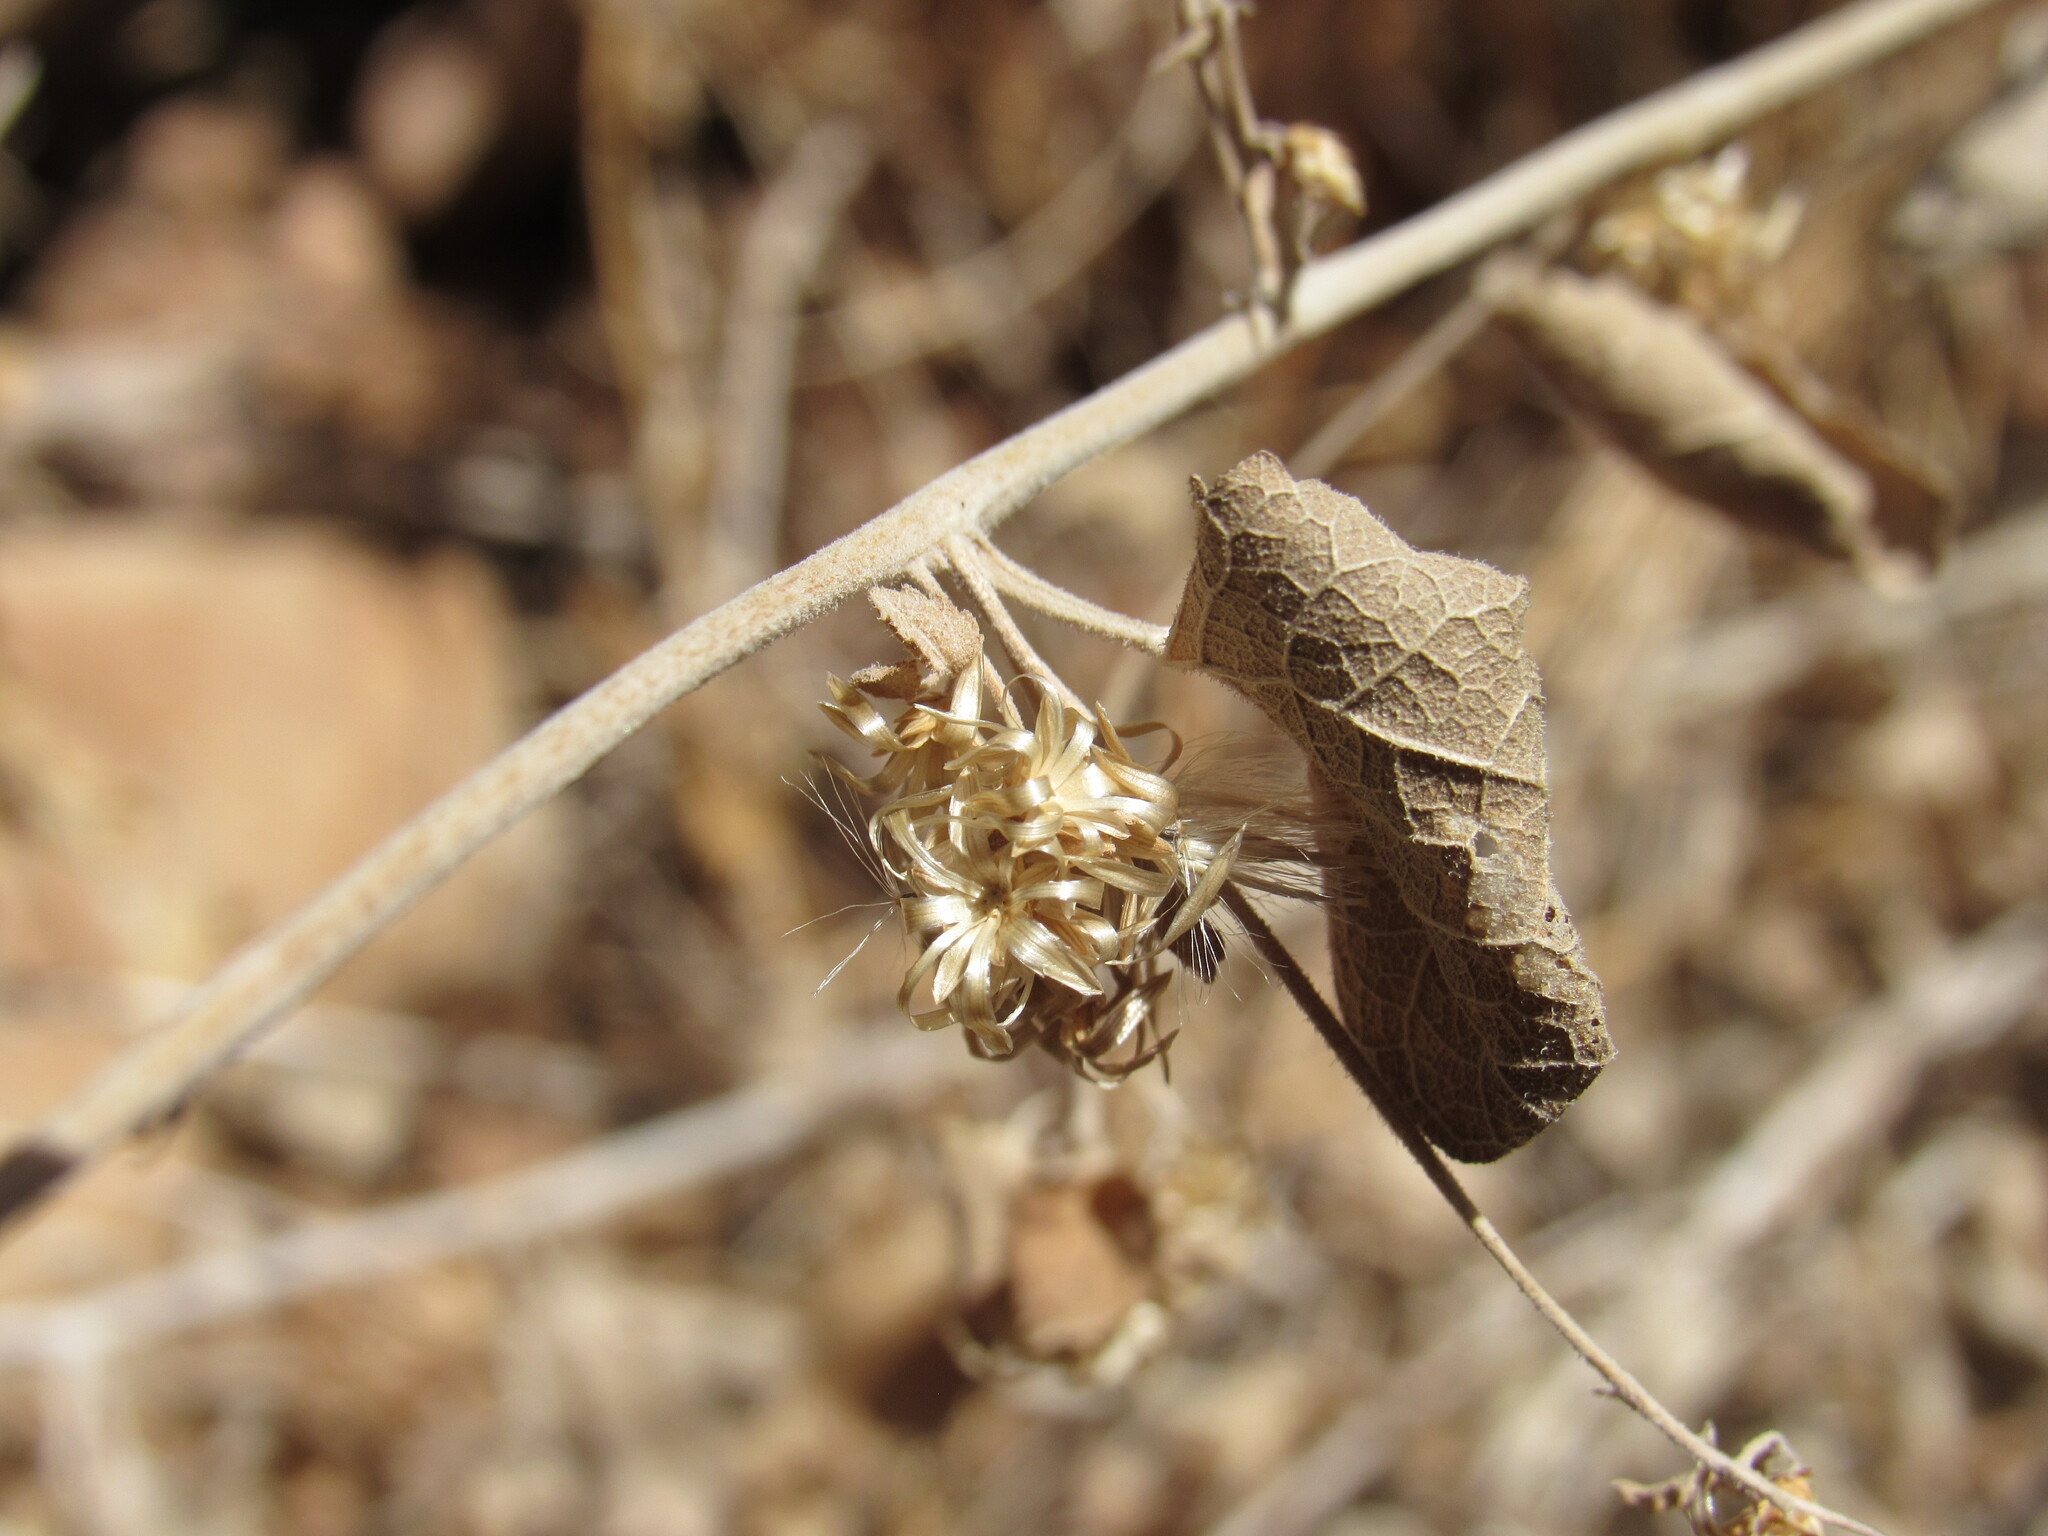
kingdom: Plantae
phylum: Tracheophyta
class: Magnoliopsida
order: Asterales
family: Asteraceae
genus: Brickellia
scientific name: Brickellia californica
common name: California brickellbush
